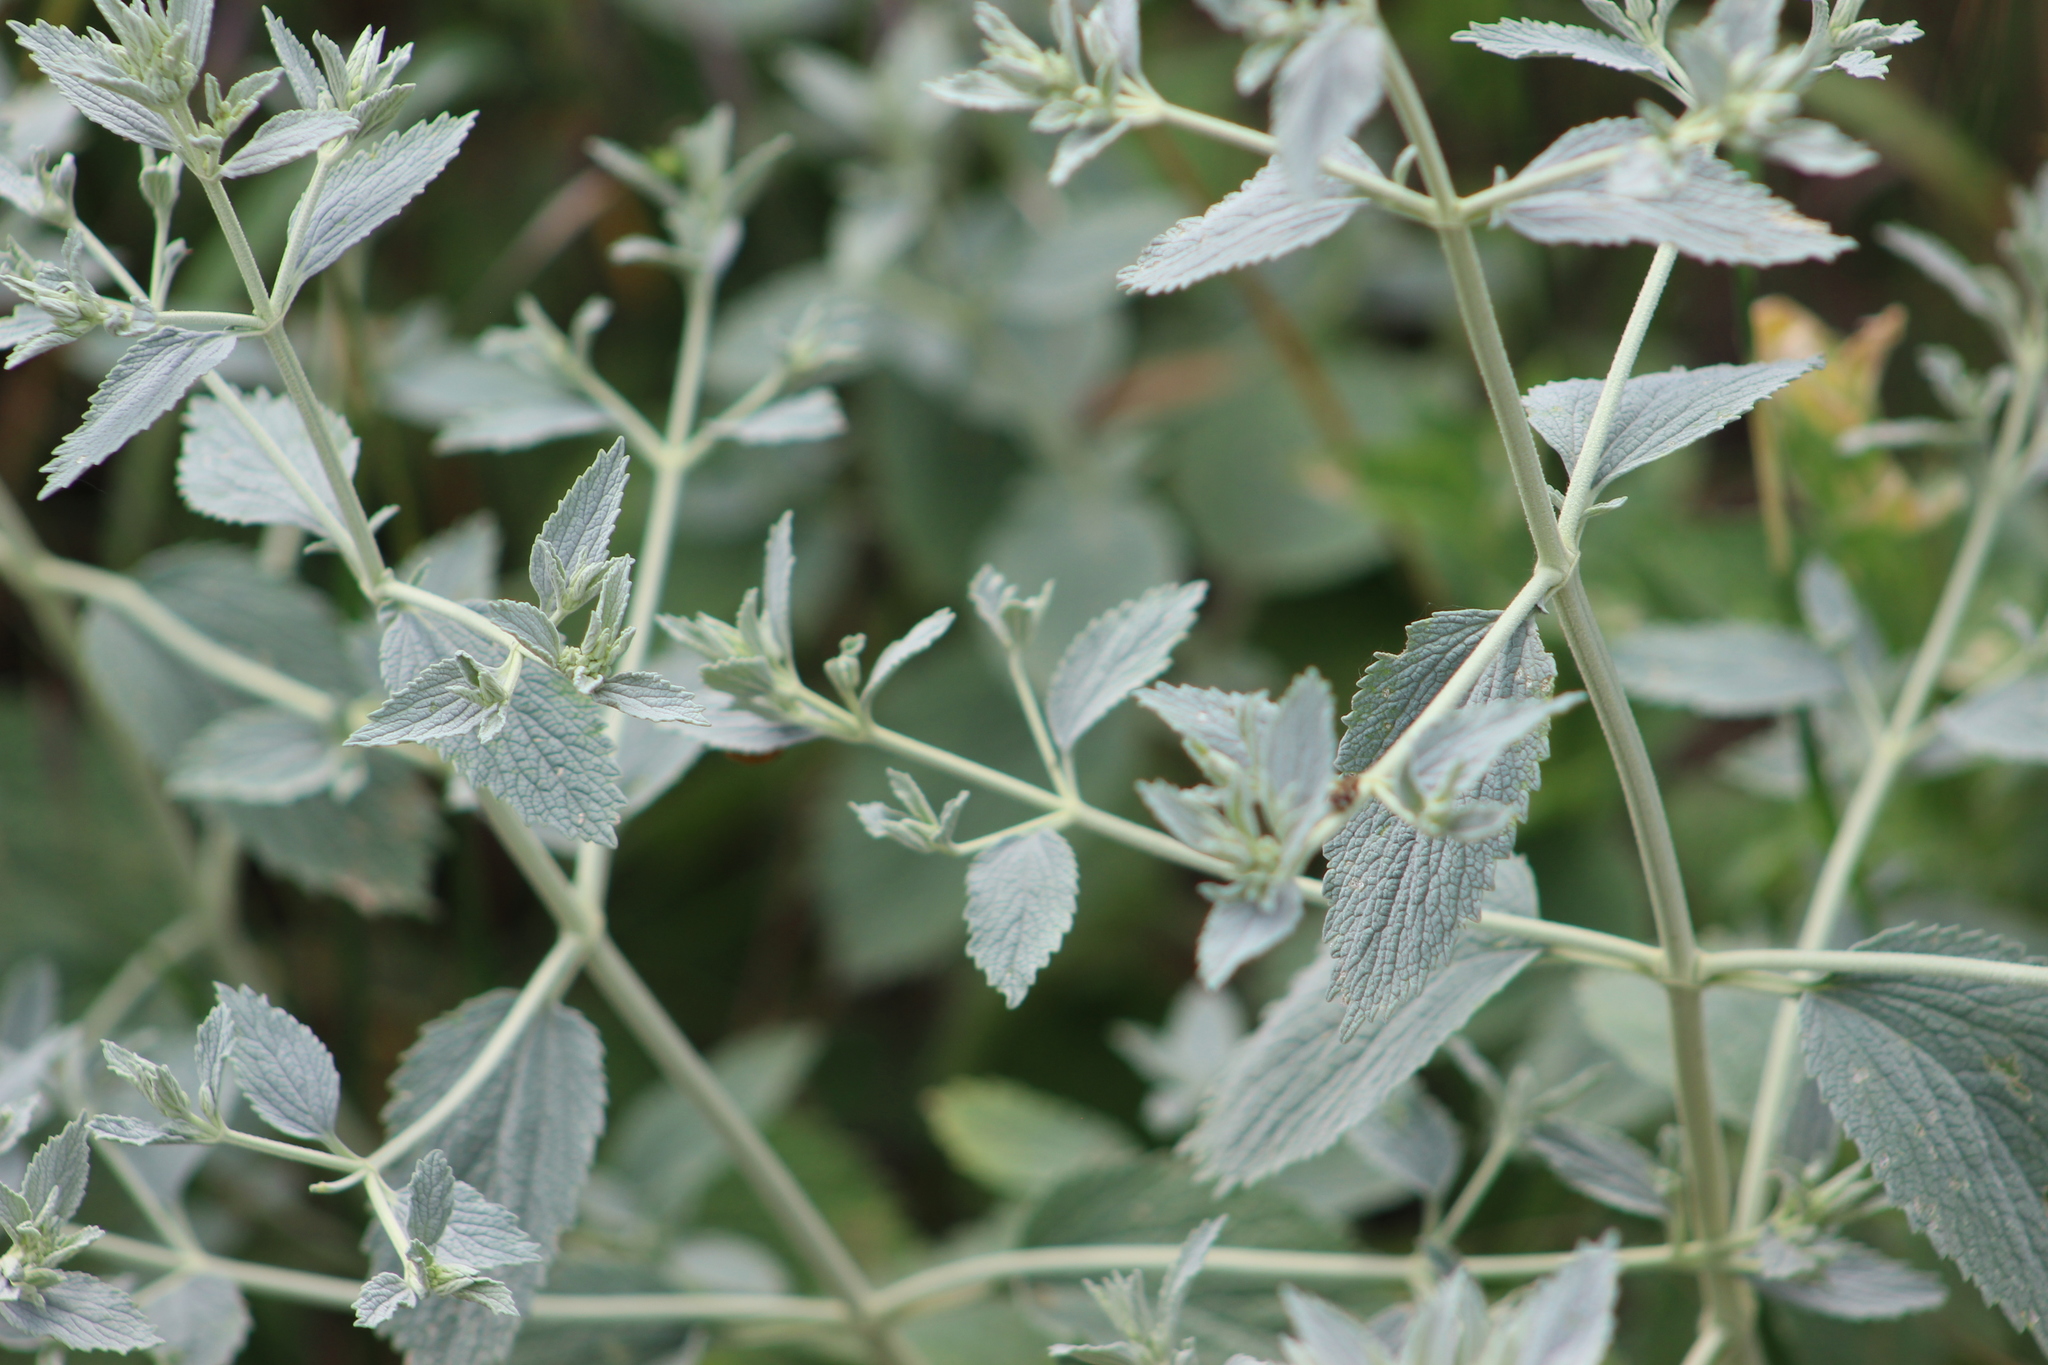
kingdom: Plantae
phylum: Tracheophyta
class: Magnoliopsida
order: Lamiales
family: Lamiaceae
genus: Marrubium
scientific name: Marrubium peregrinum
